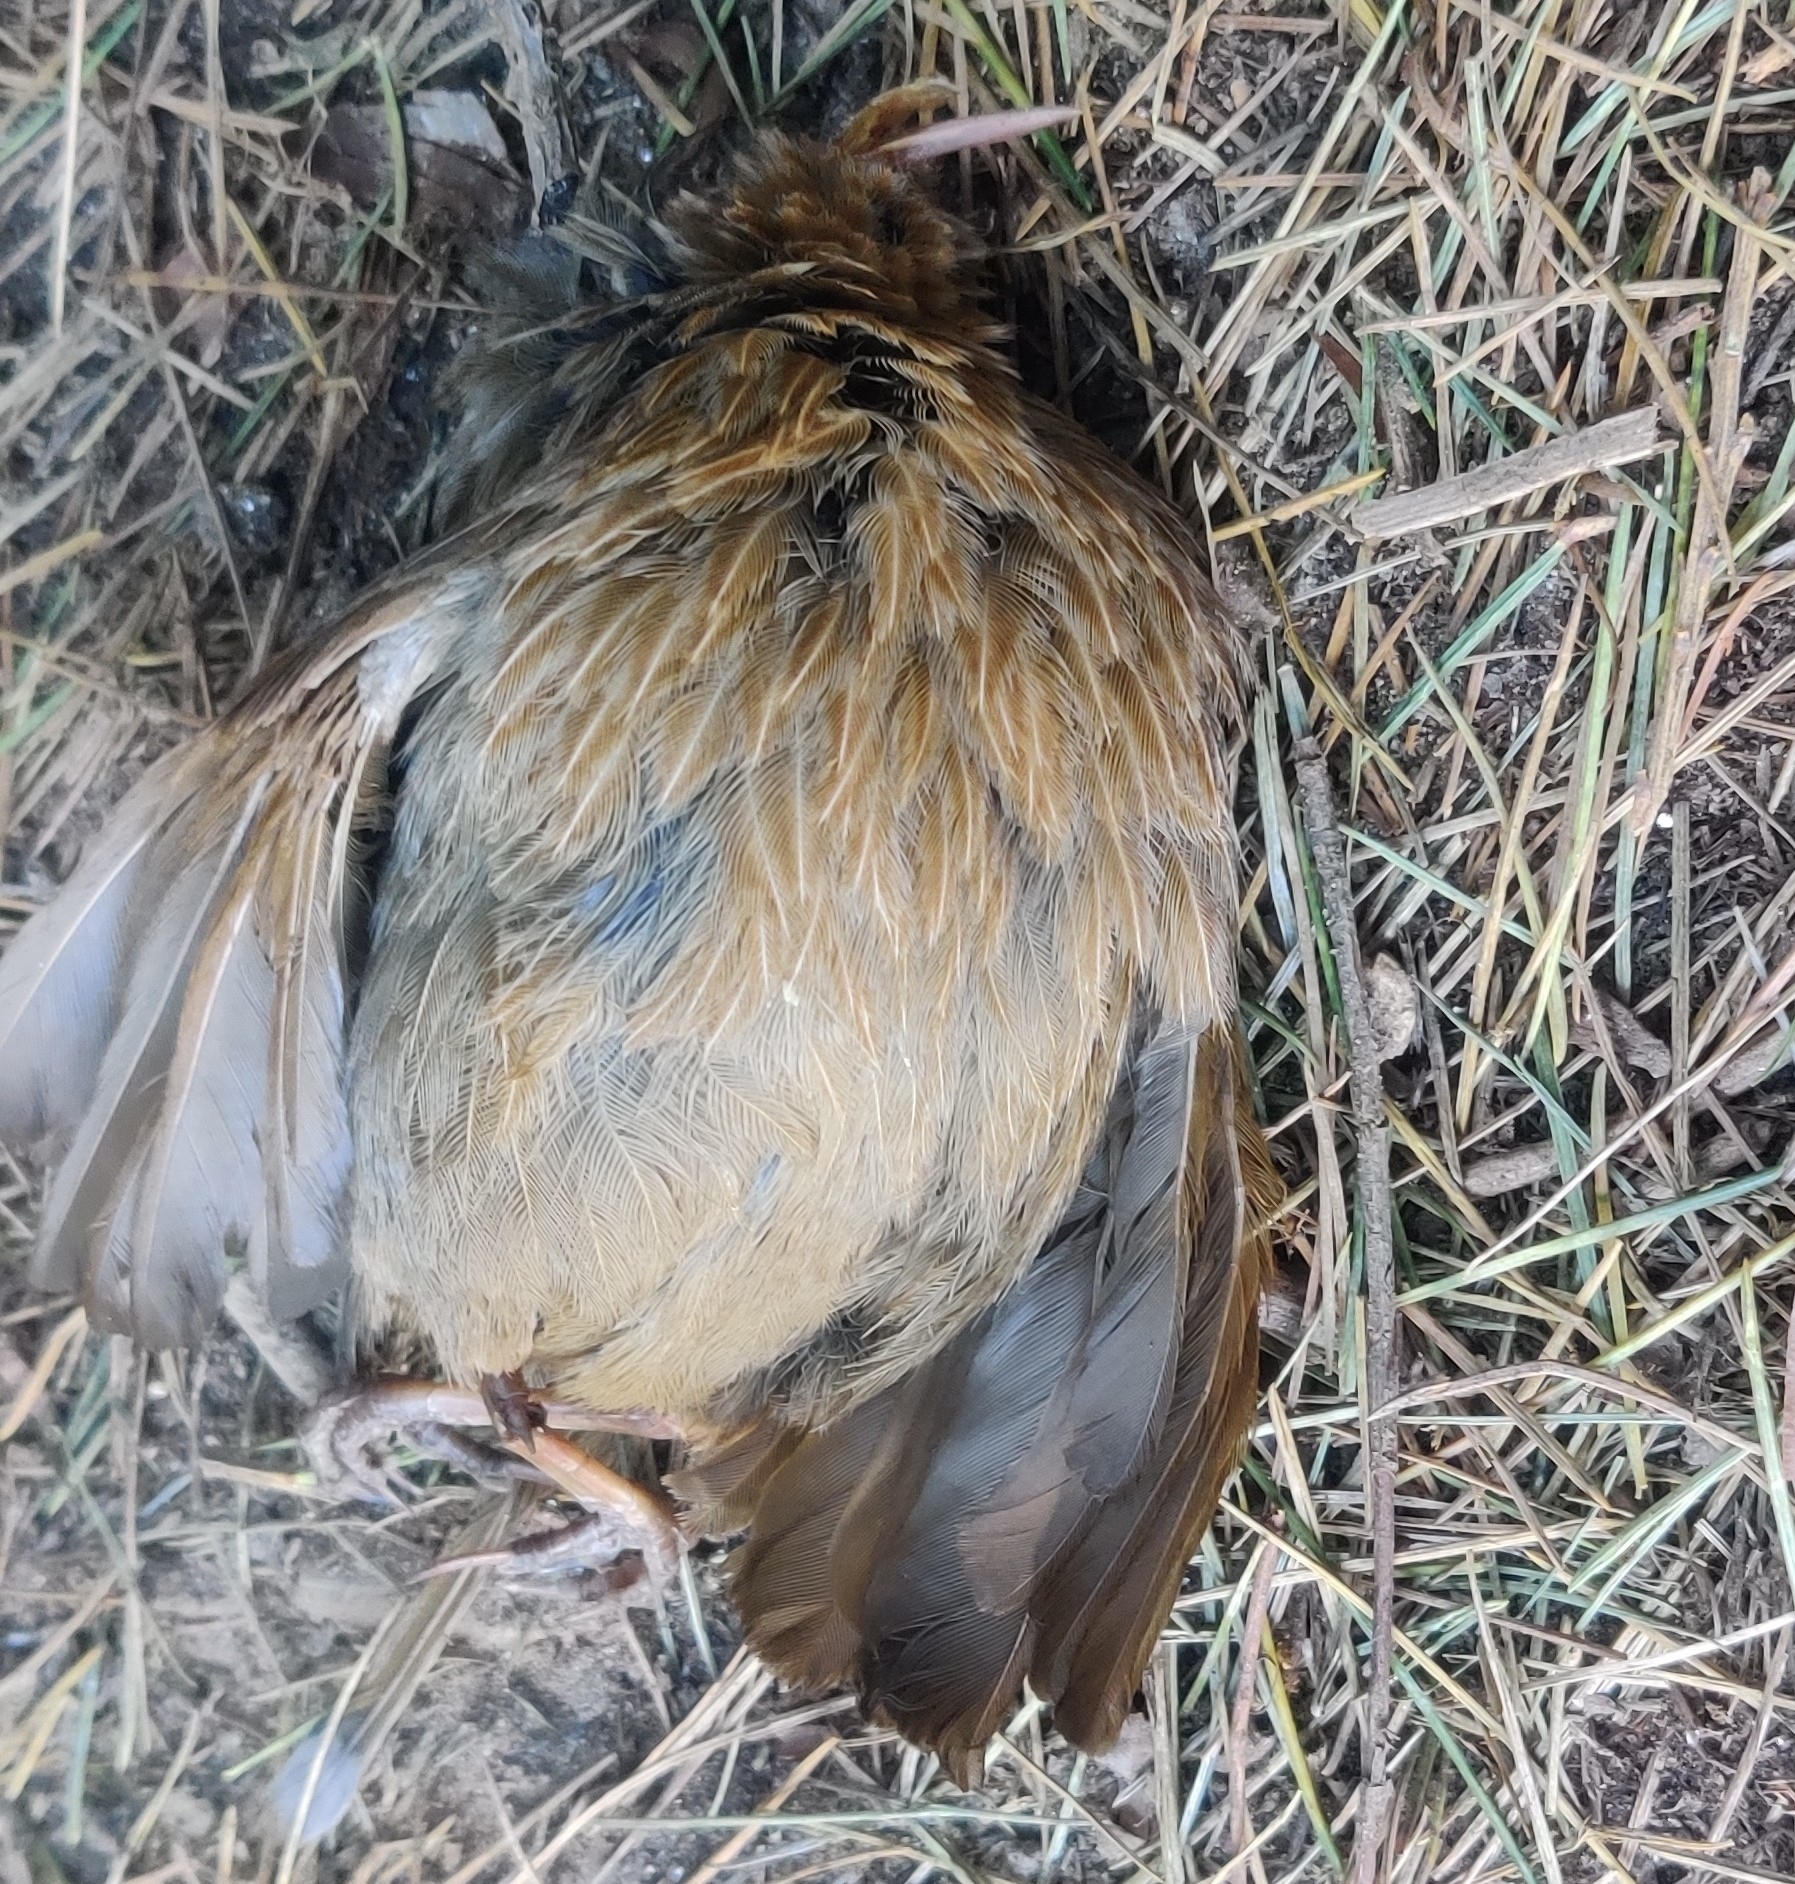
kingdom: Animalia
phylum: Chordata
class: Aves
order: Passeriformes
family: Leiothrichidae
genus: Trochalopteron
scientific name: Trochalopteron lineatum
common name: Streaked laughingthrush
